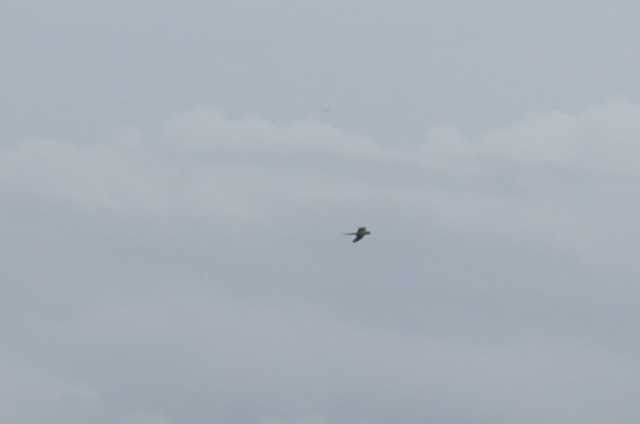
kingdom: Animalia
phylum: Chordata
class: Aves
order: Psittaciformes
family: Psittacidae
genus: Psittacula
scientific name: Psittacula krameri
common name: Rose-ringed parakeet
